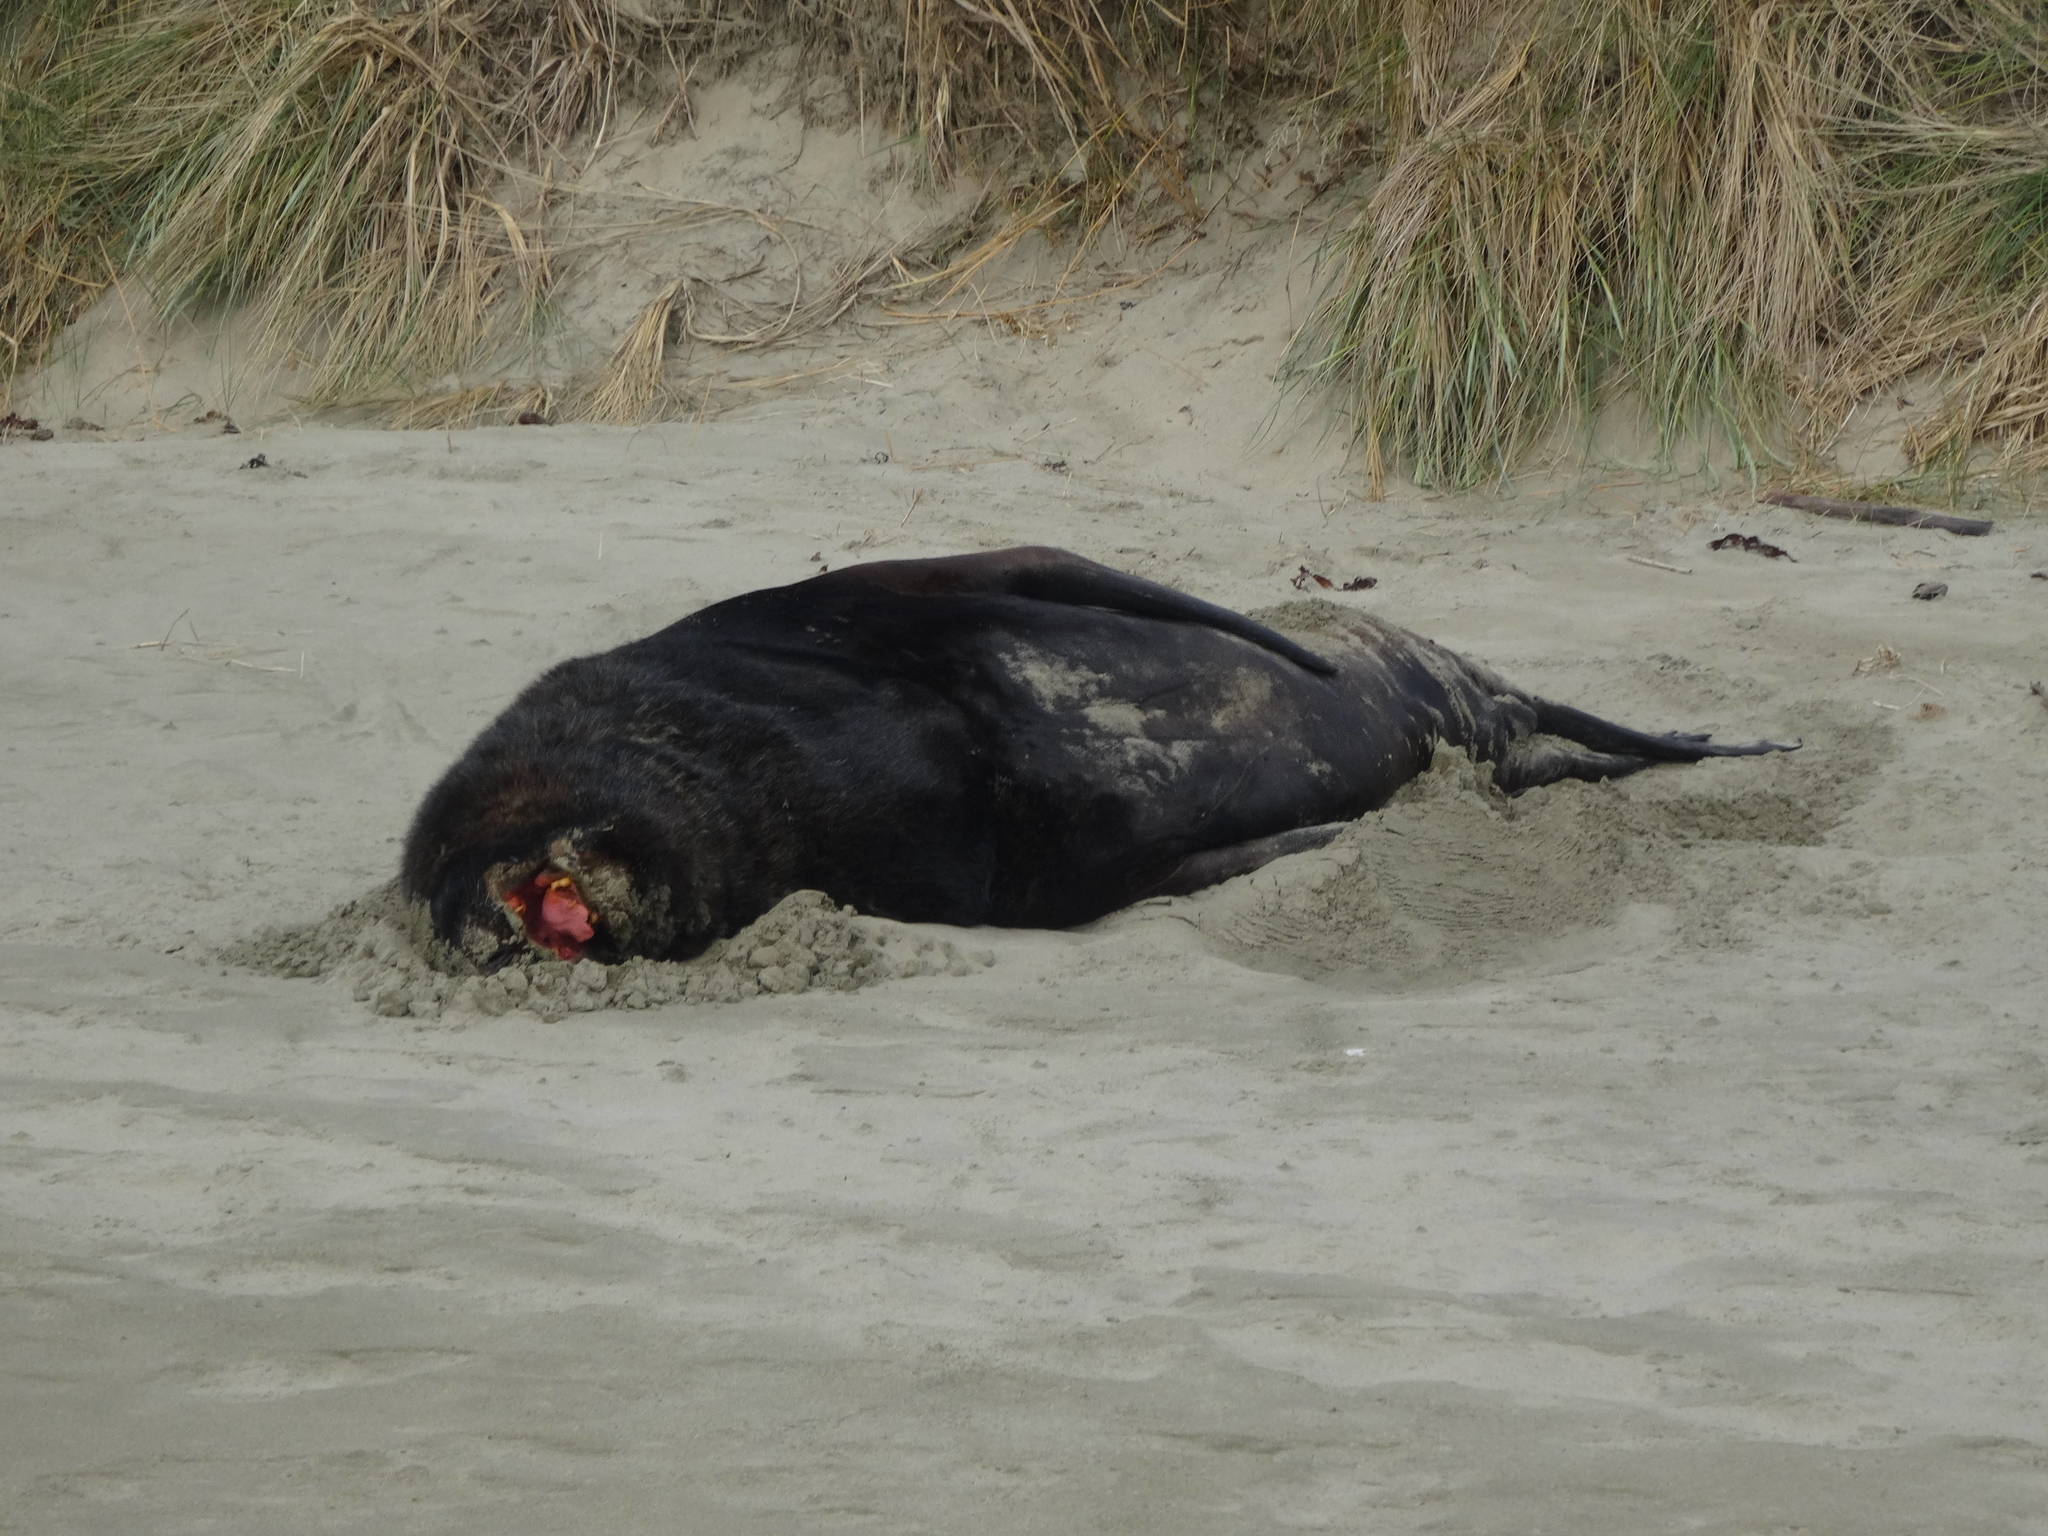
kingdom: Animalia
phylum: Chordata
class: Mammalia
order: Carnivora
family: Otariidae
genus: Phocarctos
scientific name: Phocarctos hookeri
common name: New zealand sea lion
